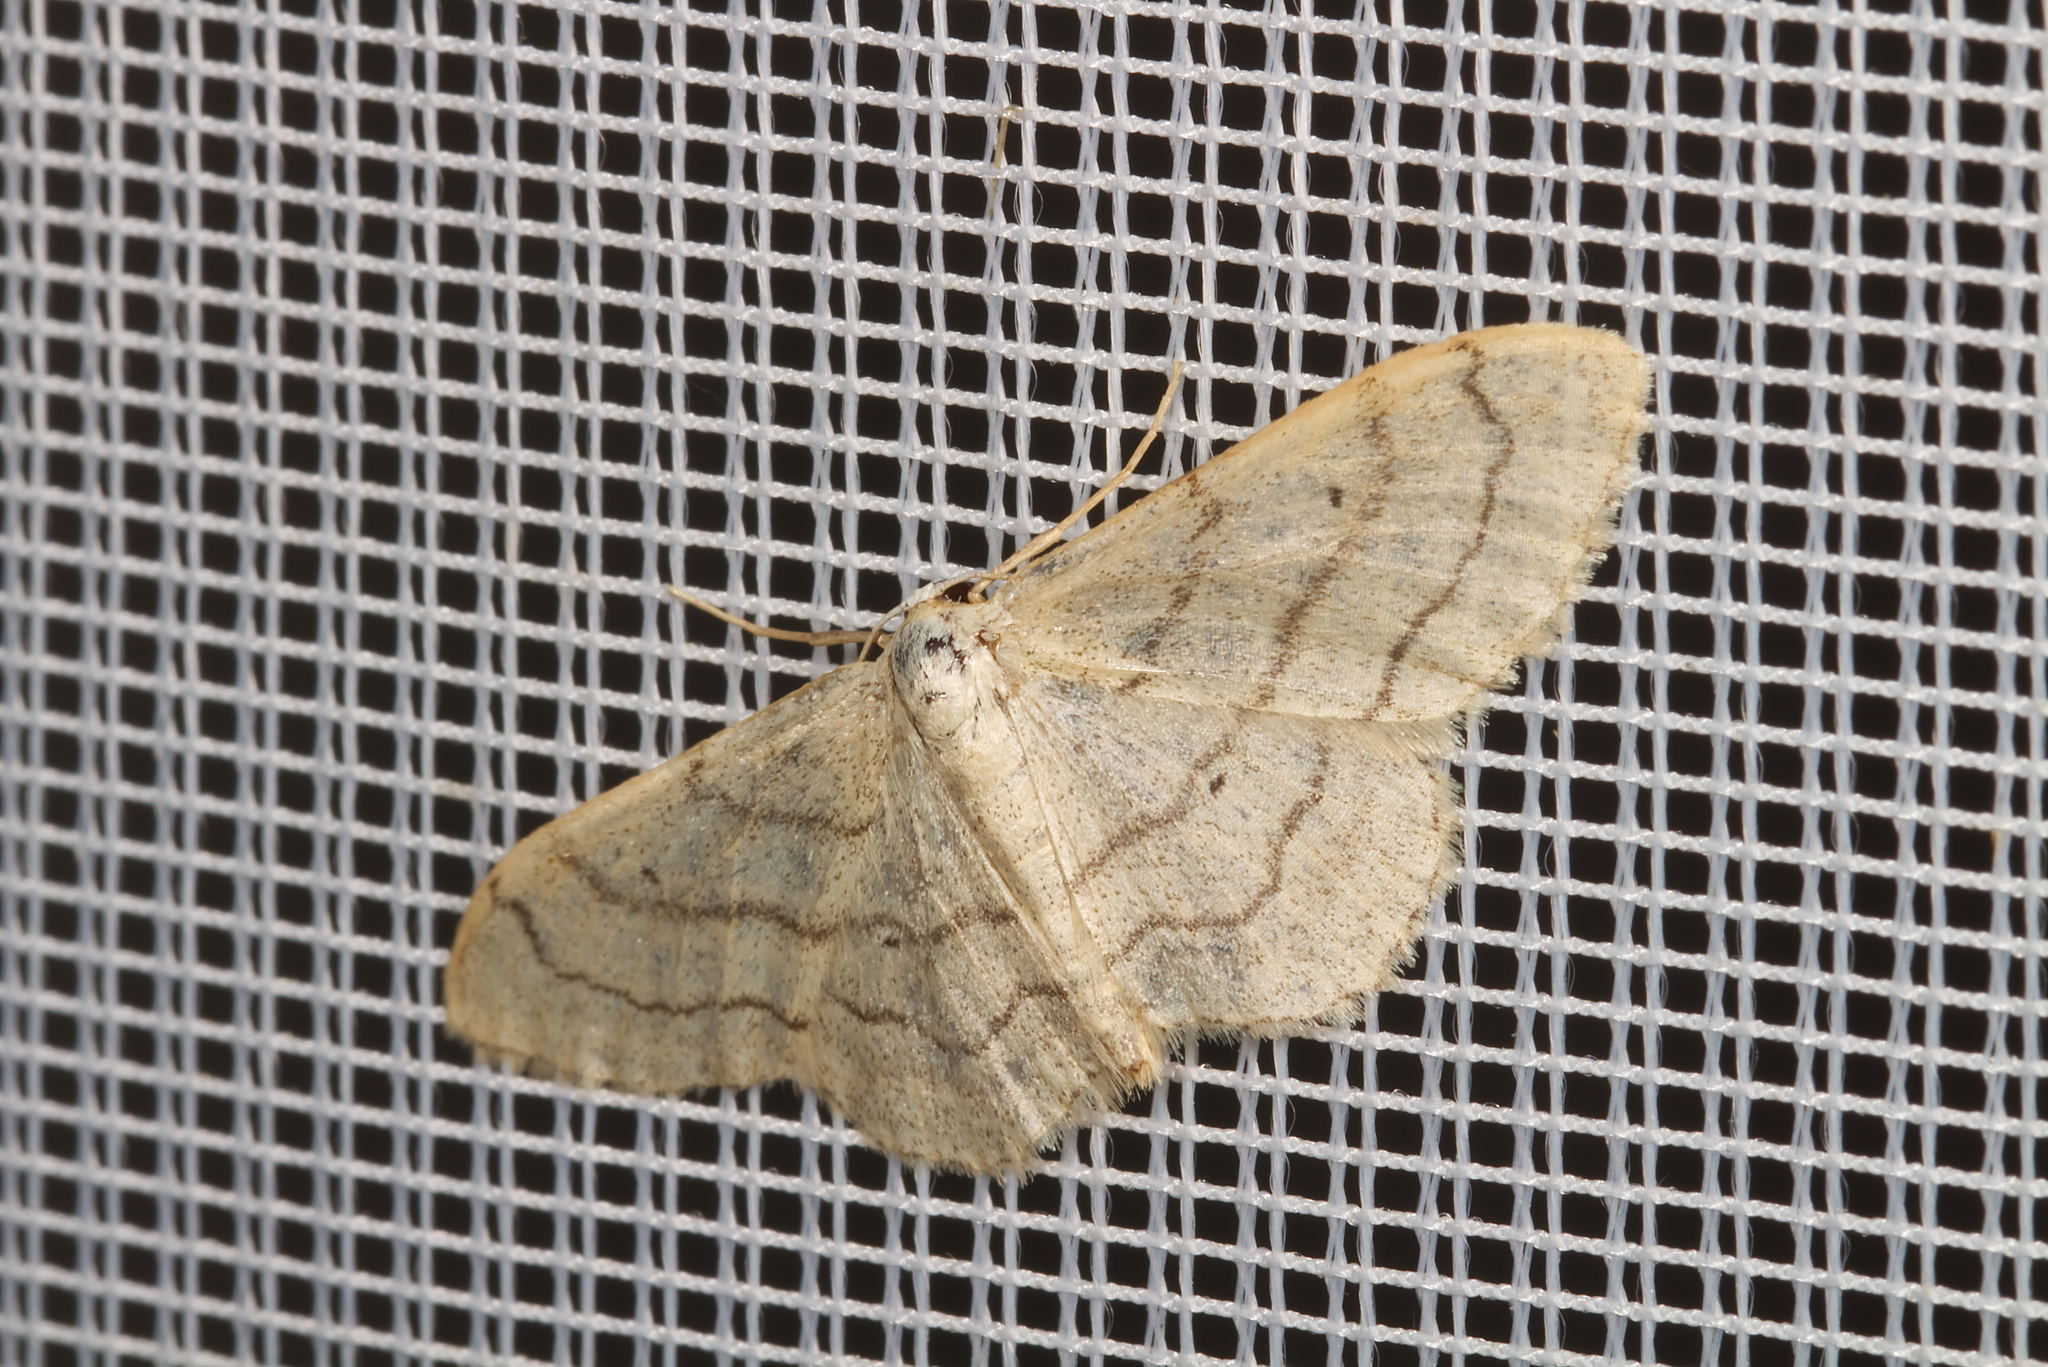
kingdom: Animalia
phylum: Arthropoda
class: Insecta
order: Lepidoptera
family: Geometridae
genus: Idaea
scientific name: Idaea aversata
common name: Riband wave
